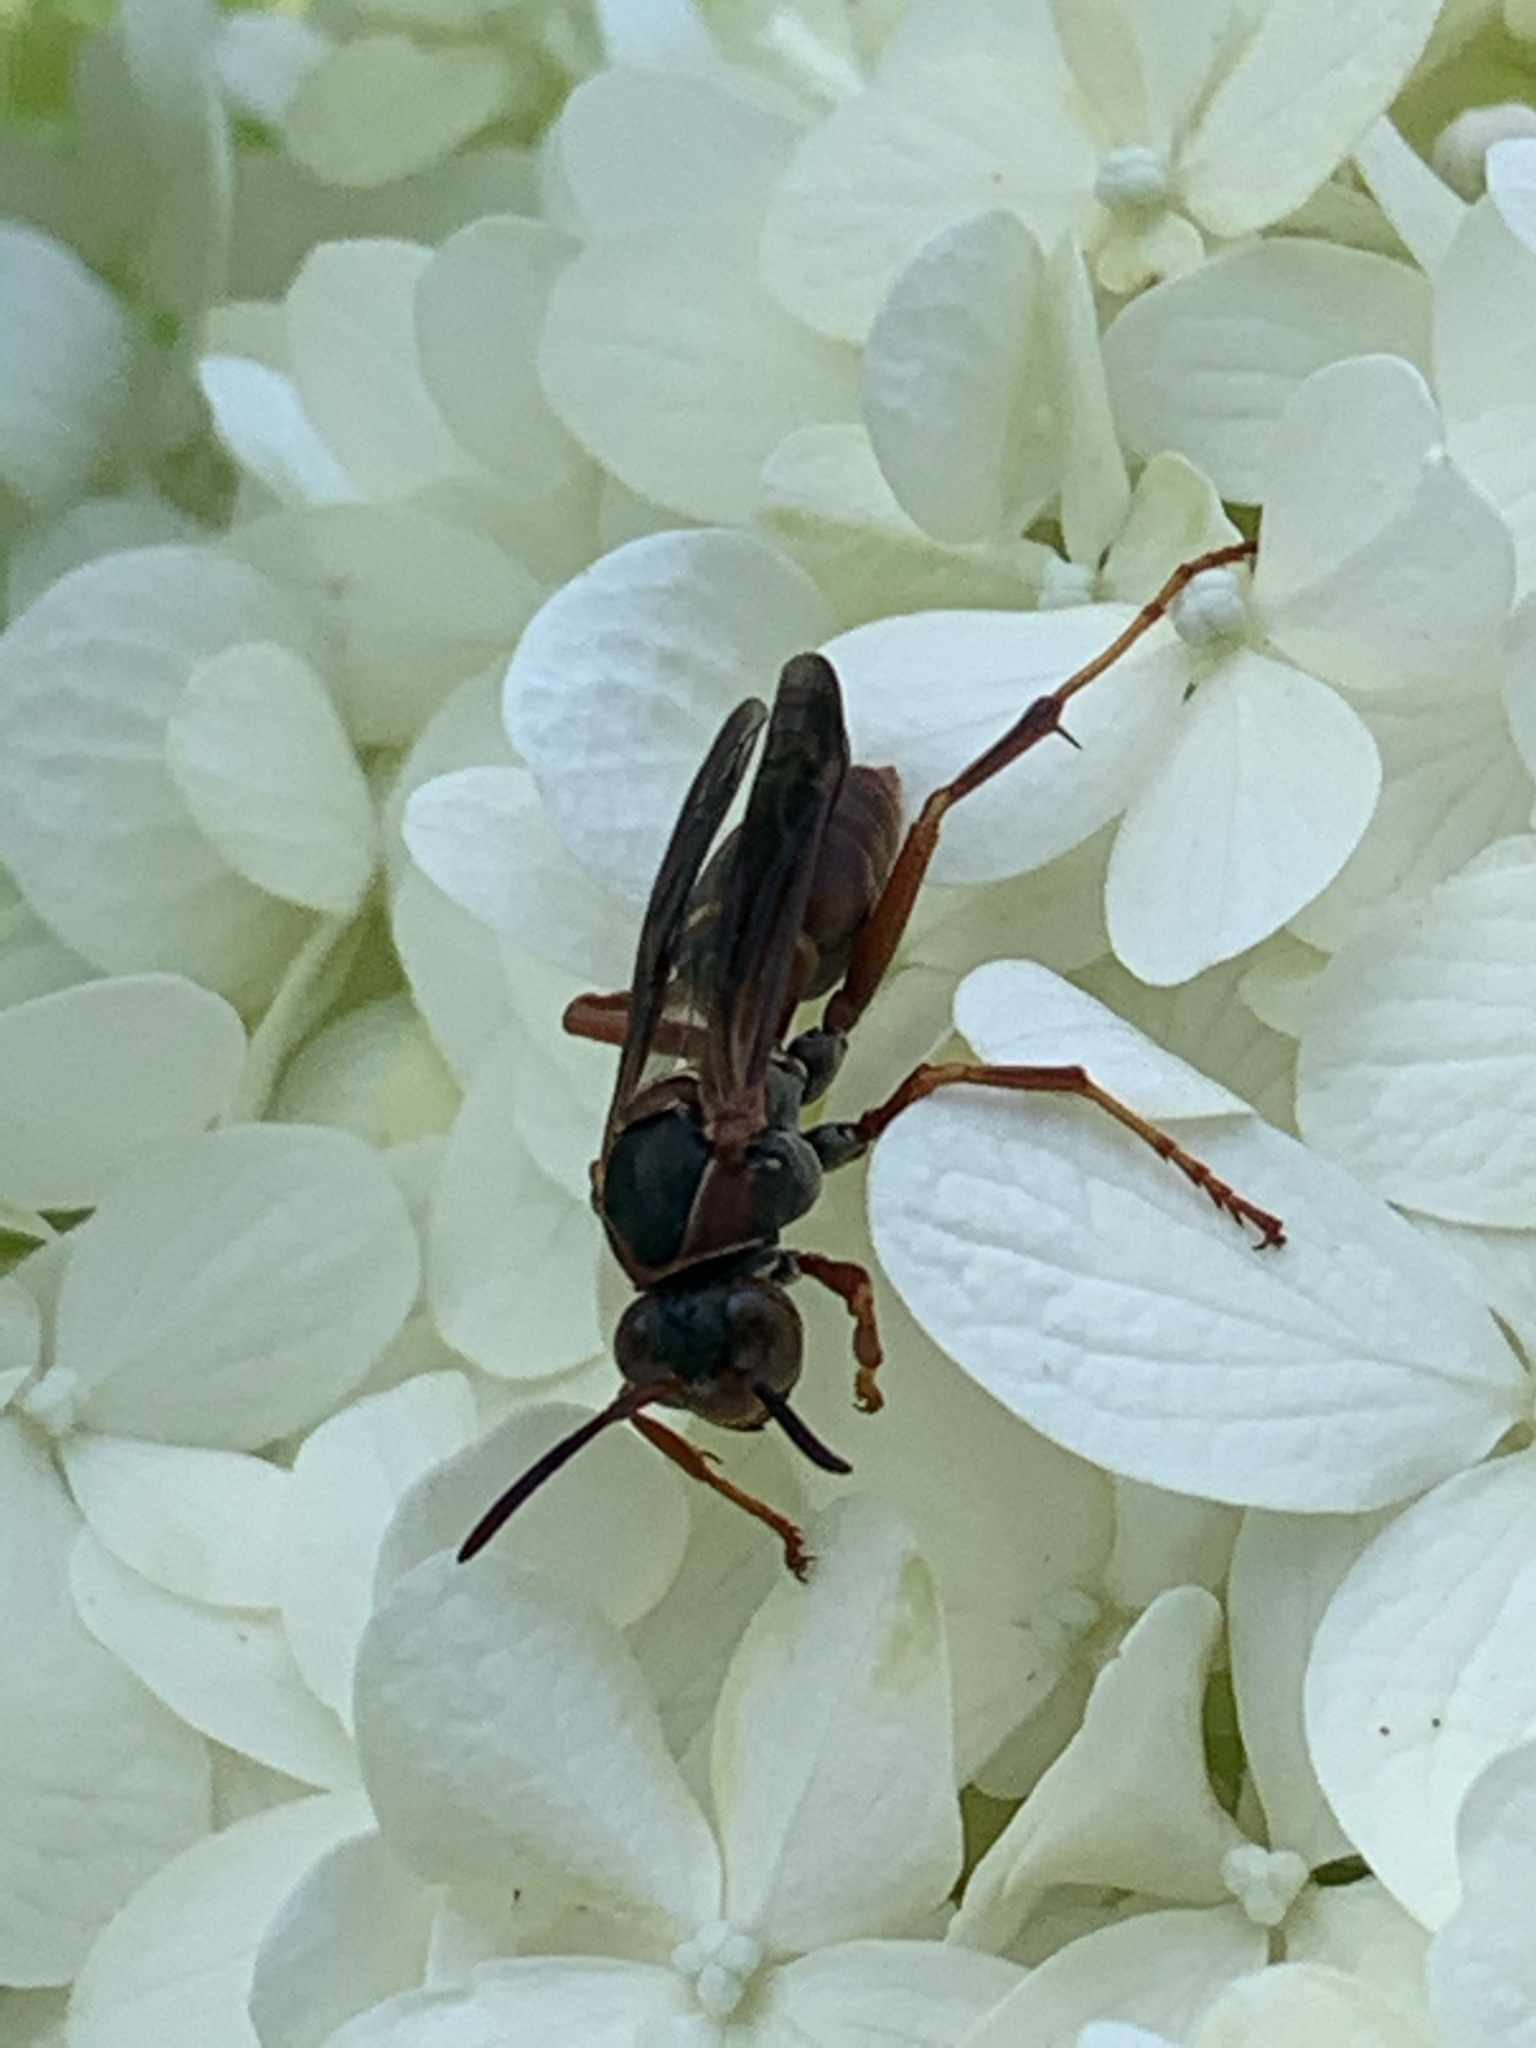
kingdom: Animalia
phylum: Arthropoda
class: Insecta
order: Hymenoptera
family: Eumenidae
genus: Polistes
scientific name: Polistes fuscatus
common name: Dark paper wasp
